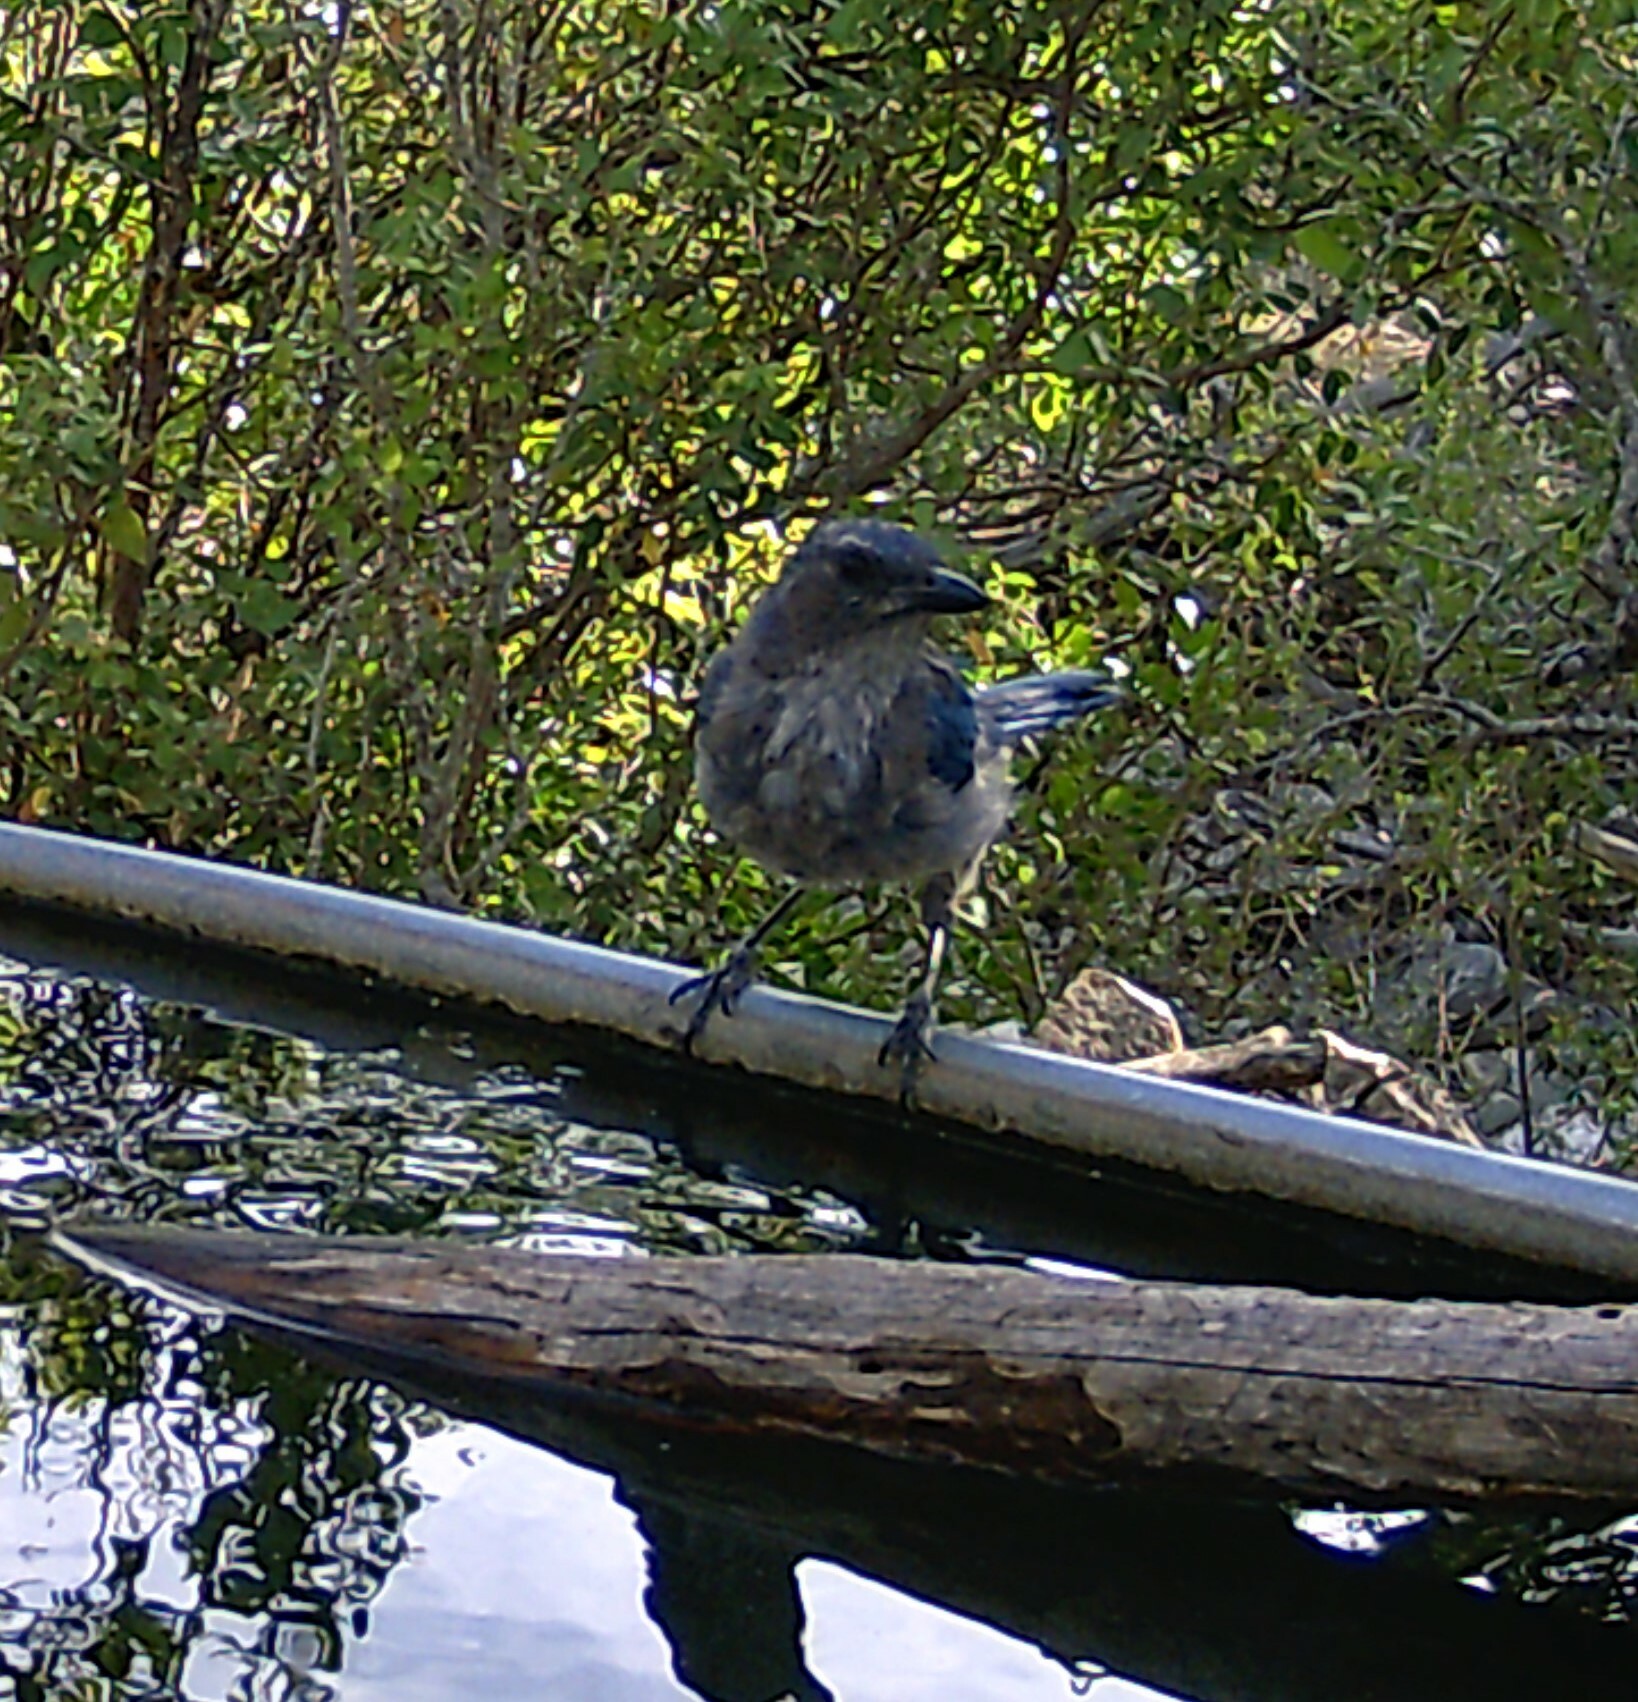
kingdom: Animalia
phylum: Chordata
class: Aves
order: Passeriformes
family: Corvidae
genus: Aphelocoma
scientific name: Aphelocoma woodhouseii
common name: Woodhouse's scrub-jay
